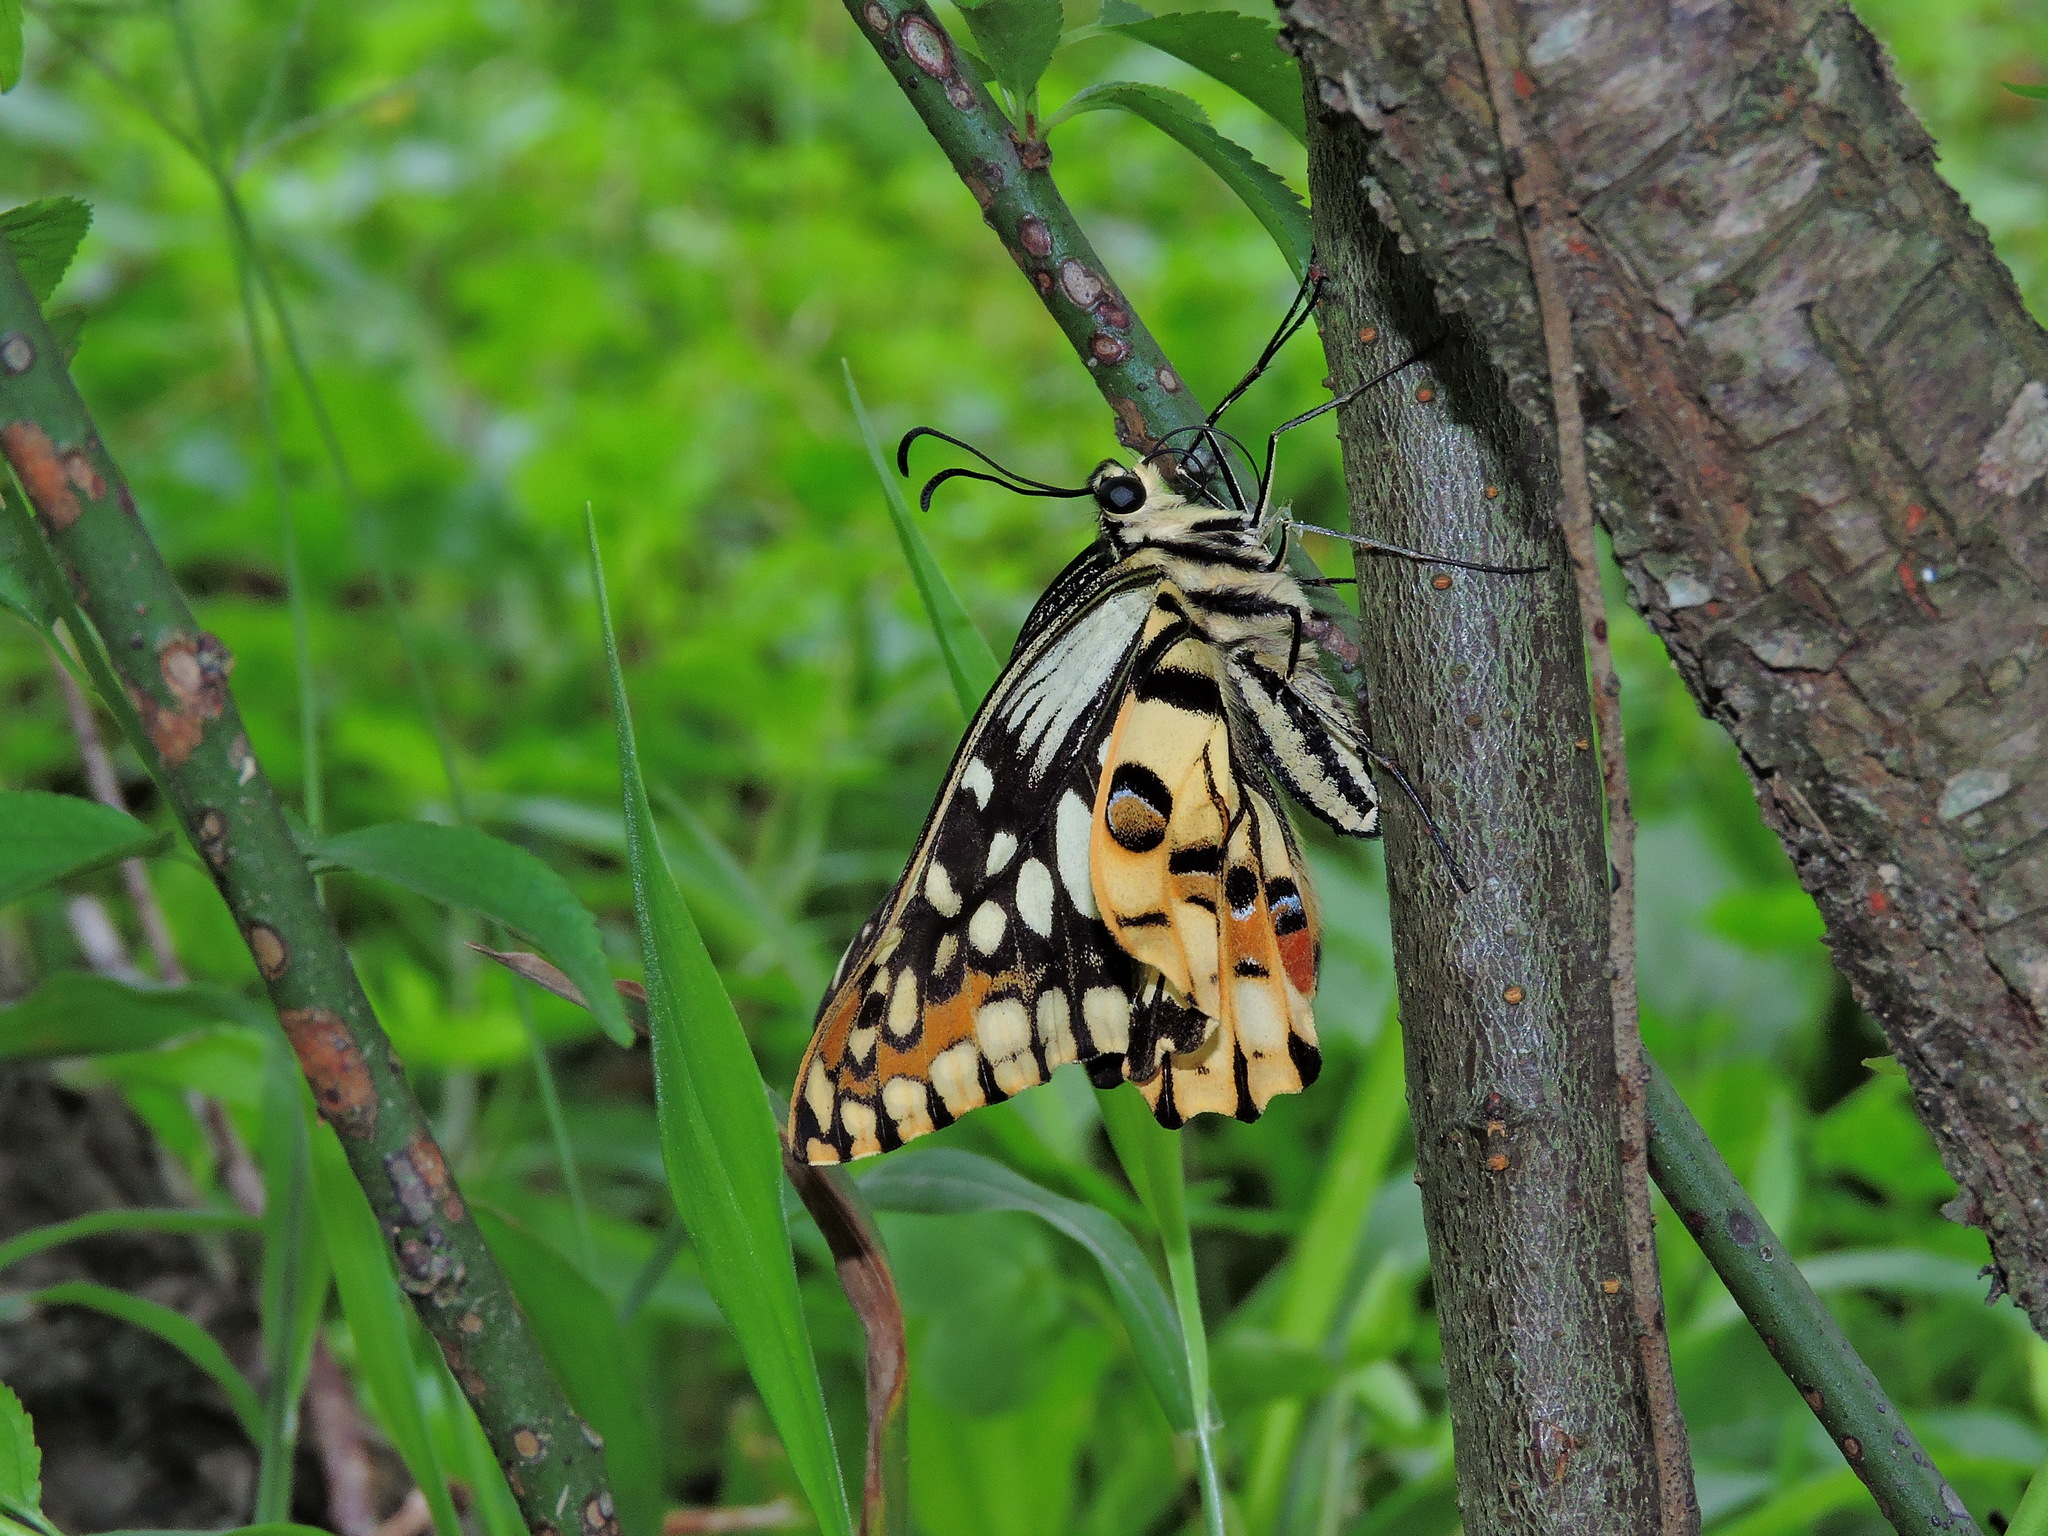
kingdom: Animalia
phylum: Arthropoda
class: Insecta
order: Lepidoptera
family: Papilionidae
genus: Papilio
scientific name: Papilio demoleus
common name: Lime butterfly
